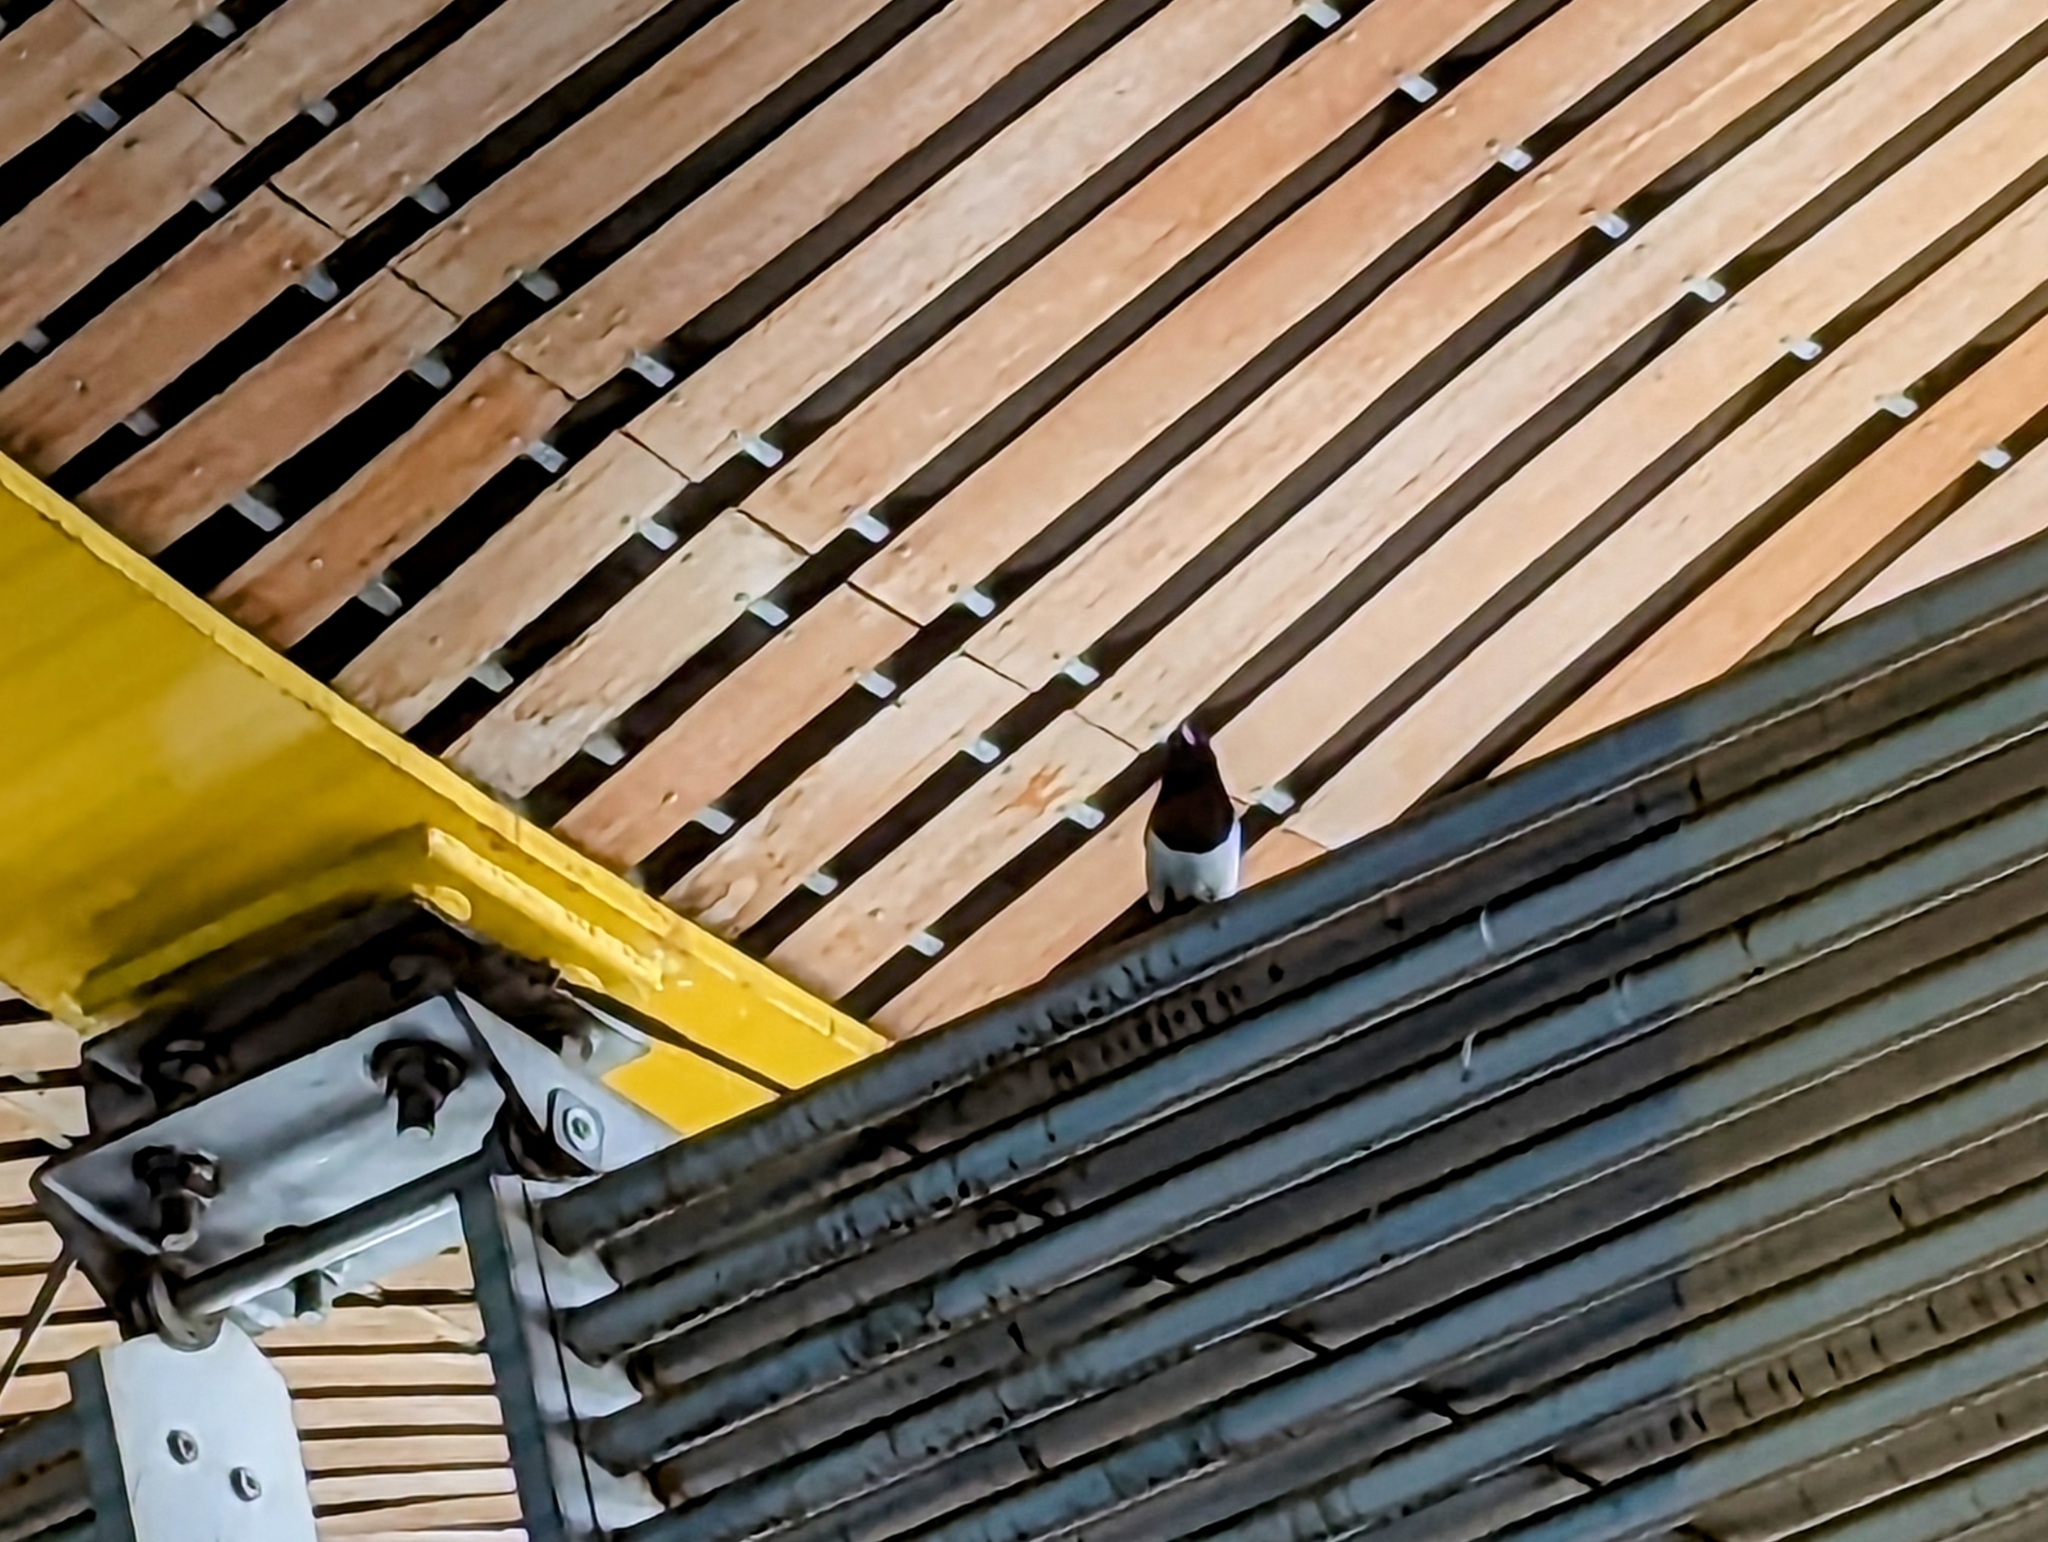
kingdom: Animalia
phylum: Chordata
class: Aves
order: Passeriformes
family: Corvidae
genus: Pica
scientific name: Pica pica
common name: Eurasian magpie
